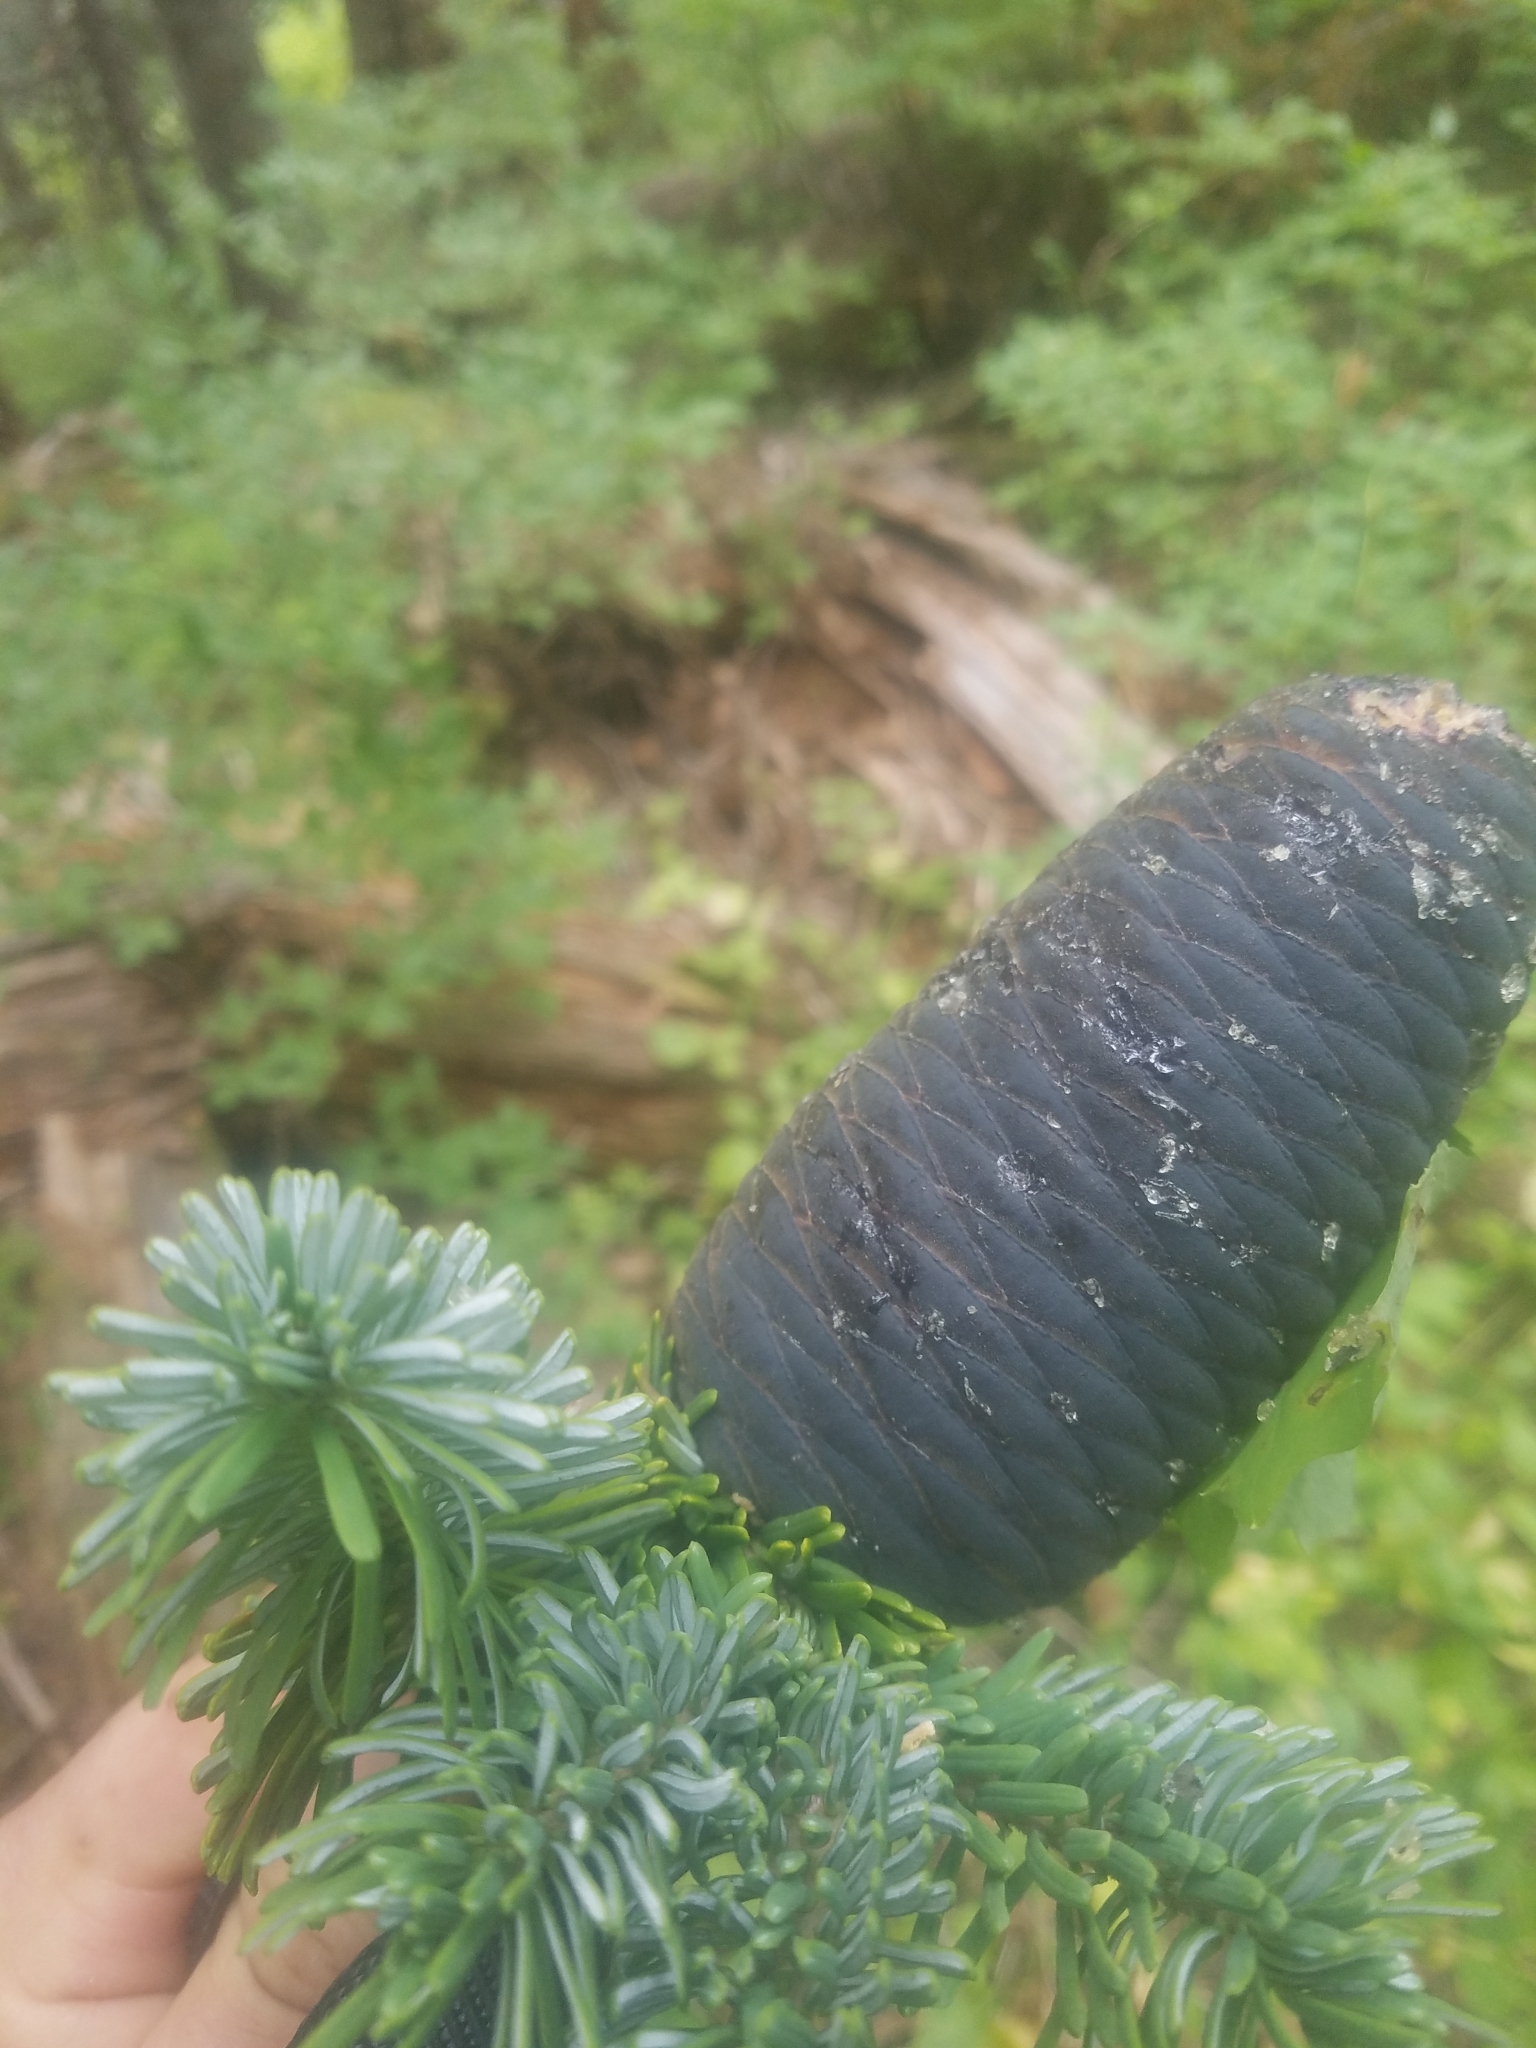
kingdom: Plantae
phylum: Tracheophyta
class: Pinopsida
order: Pinales
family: Pinaceae
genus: Abies
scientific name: Abies amabilis
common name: Pacific silver fir
